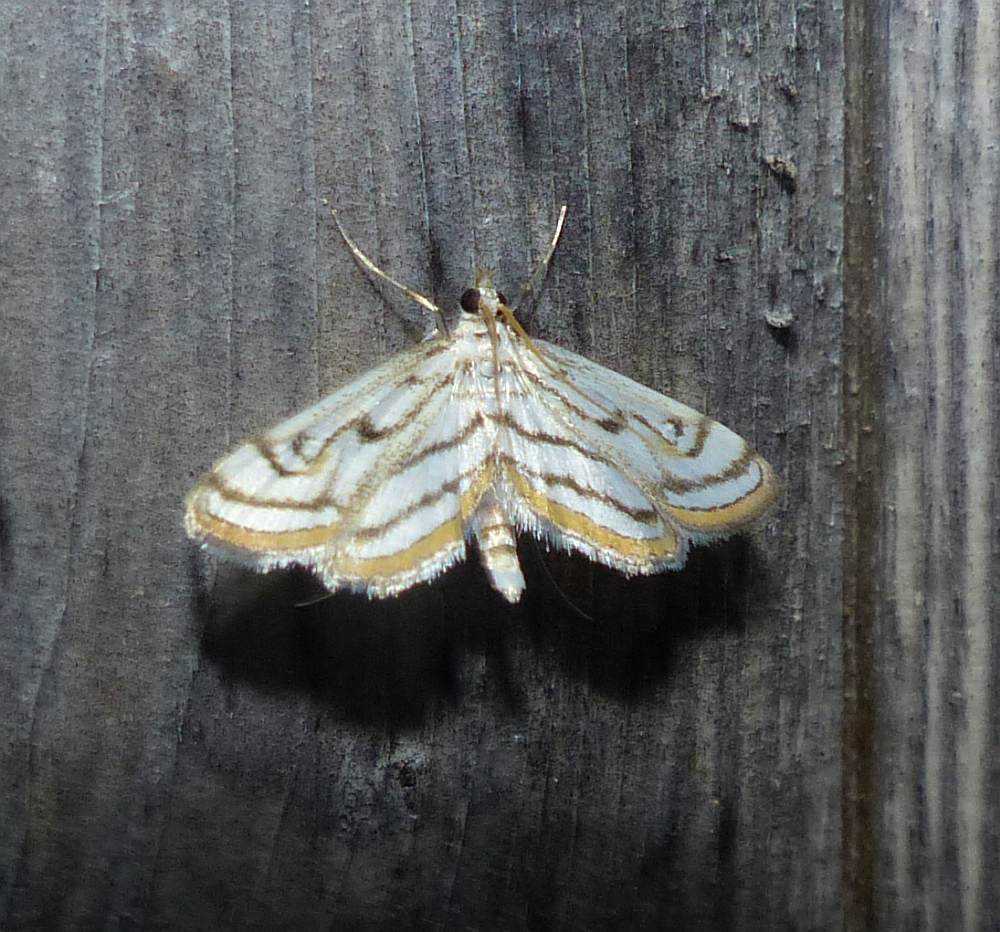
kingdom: Animalia
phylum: Arthropoda
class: Insecta
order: Lepidoptera
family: Crambidae
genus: Parapoynx
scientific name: Parapoynx badiusalis
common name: Chestnut-marked pondweed moth
